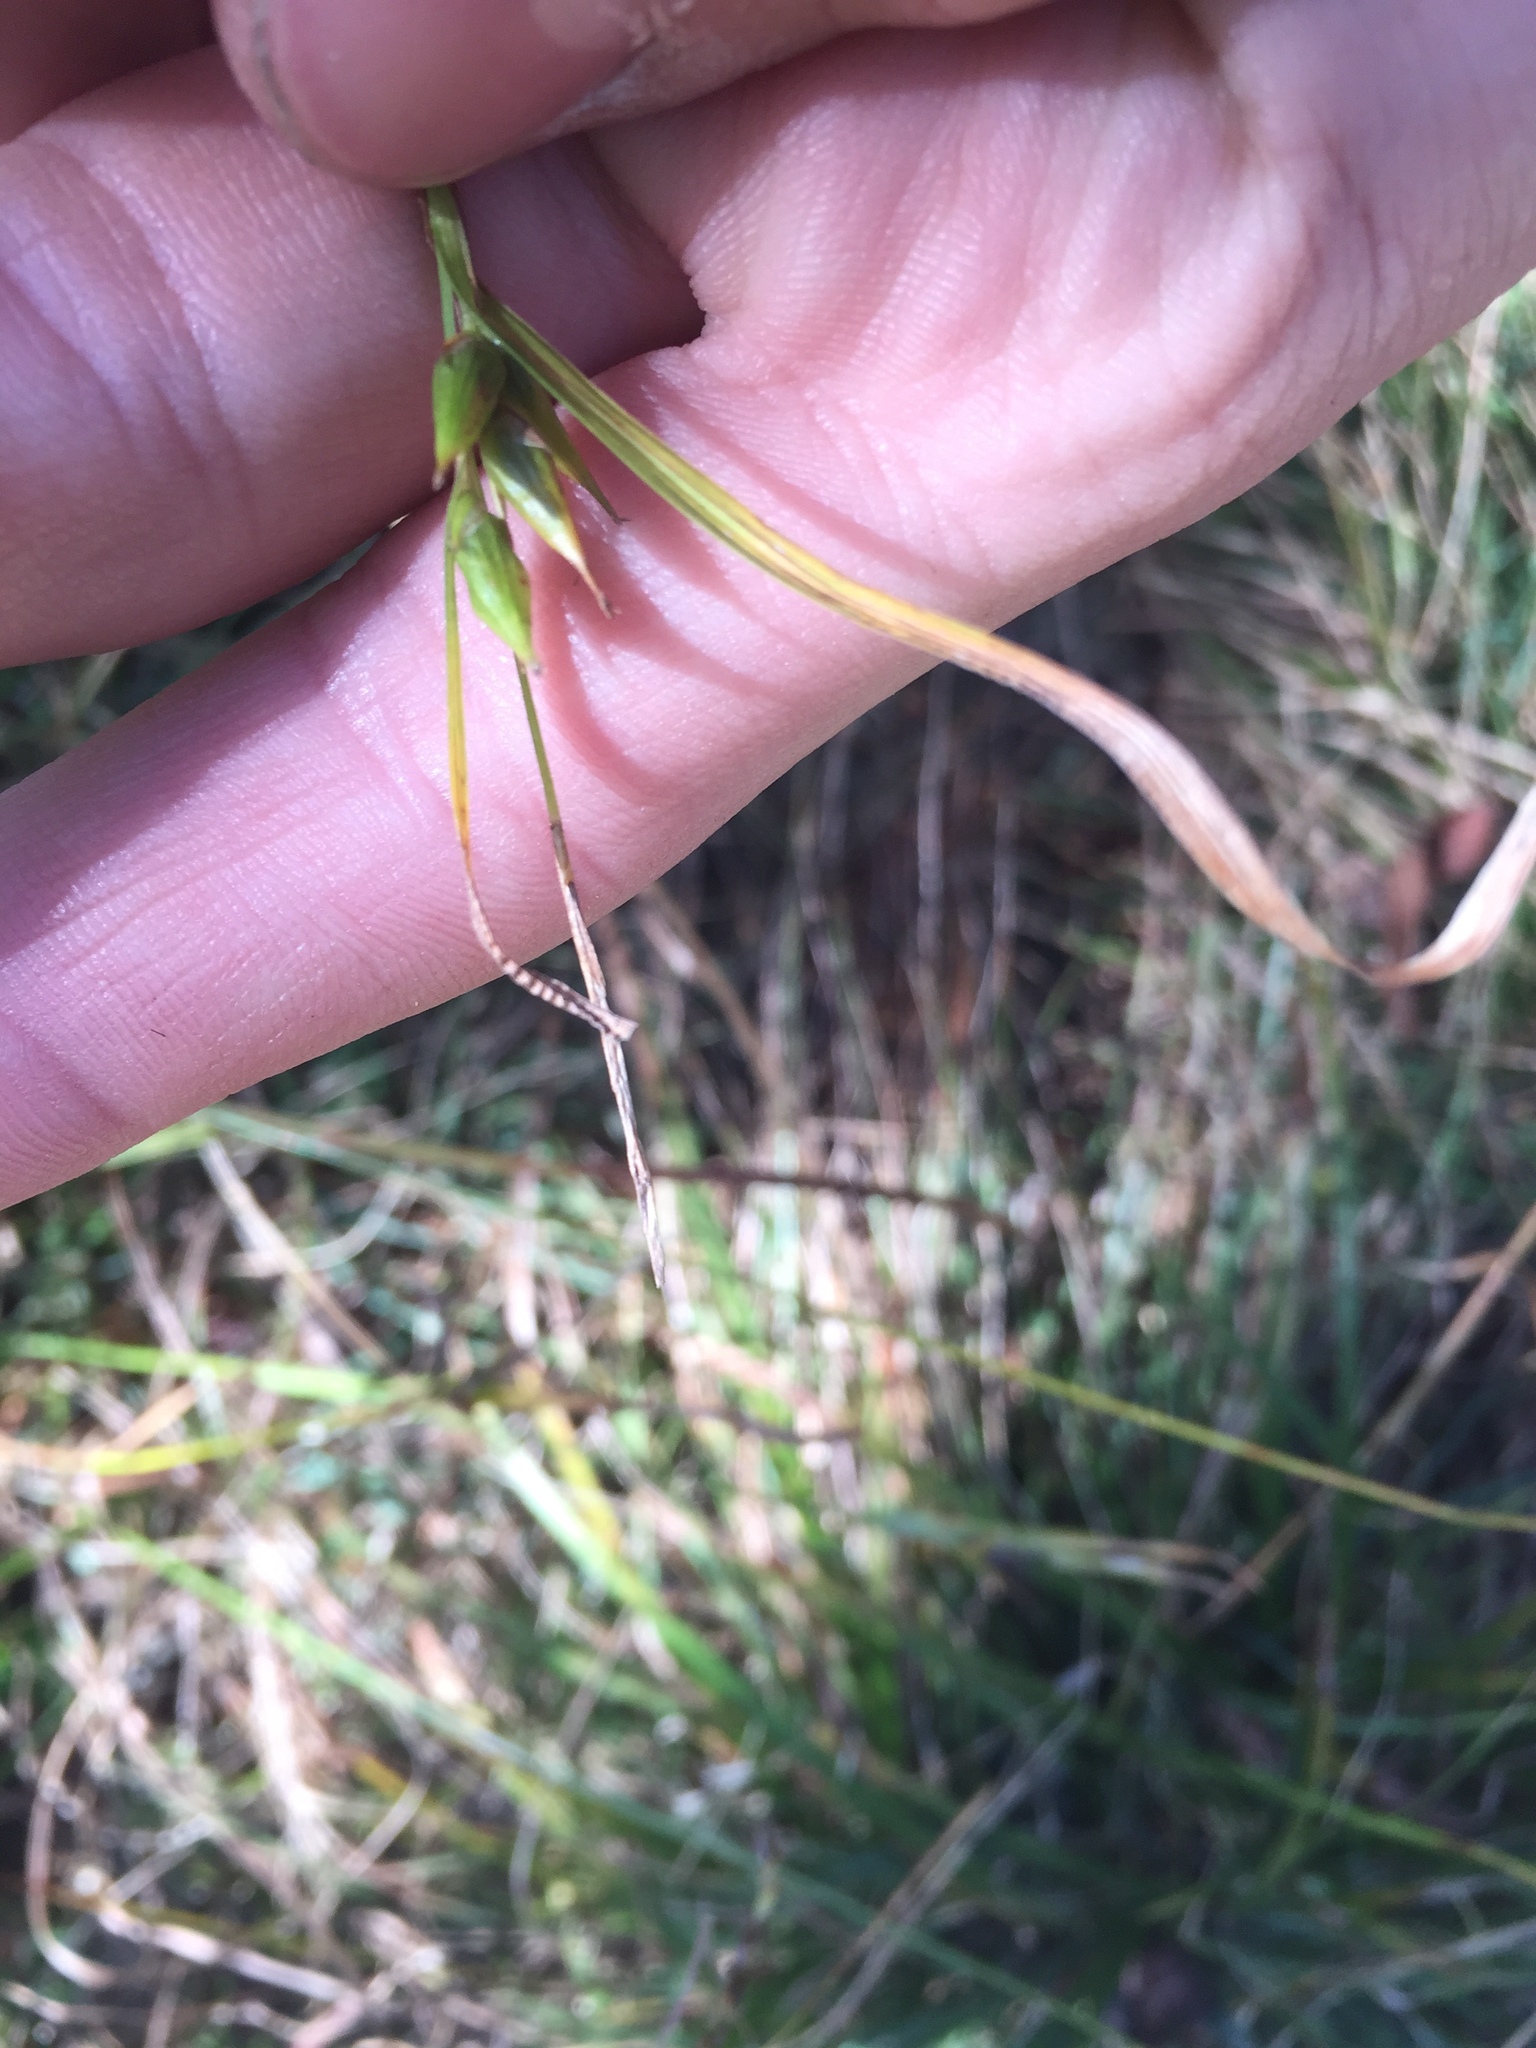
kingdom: Plantae
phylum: Tracheophyta
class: Liliopsida
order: Poales
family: Cyperaceae
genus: Carex
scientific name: Carex intumescens
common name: Greater bladder sedge
